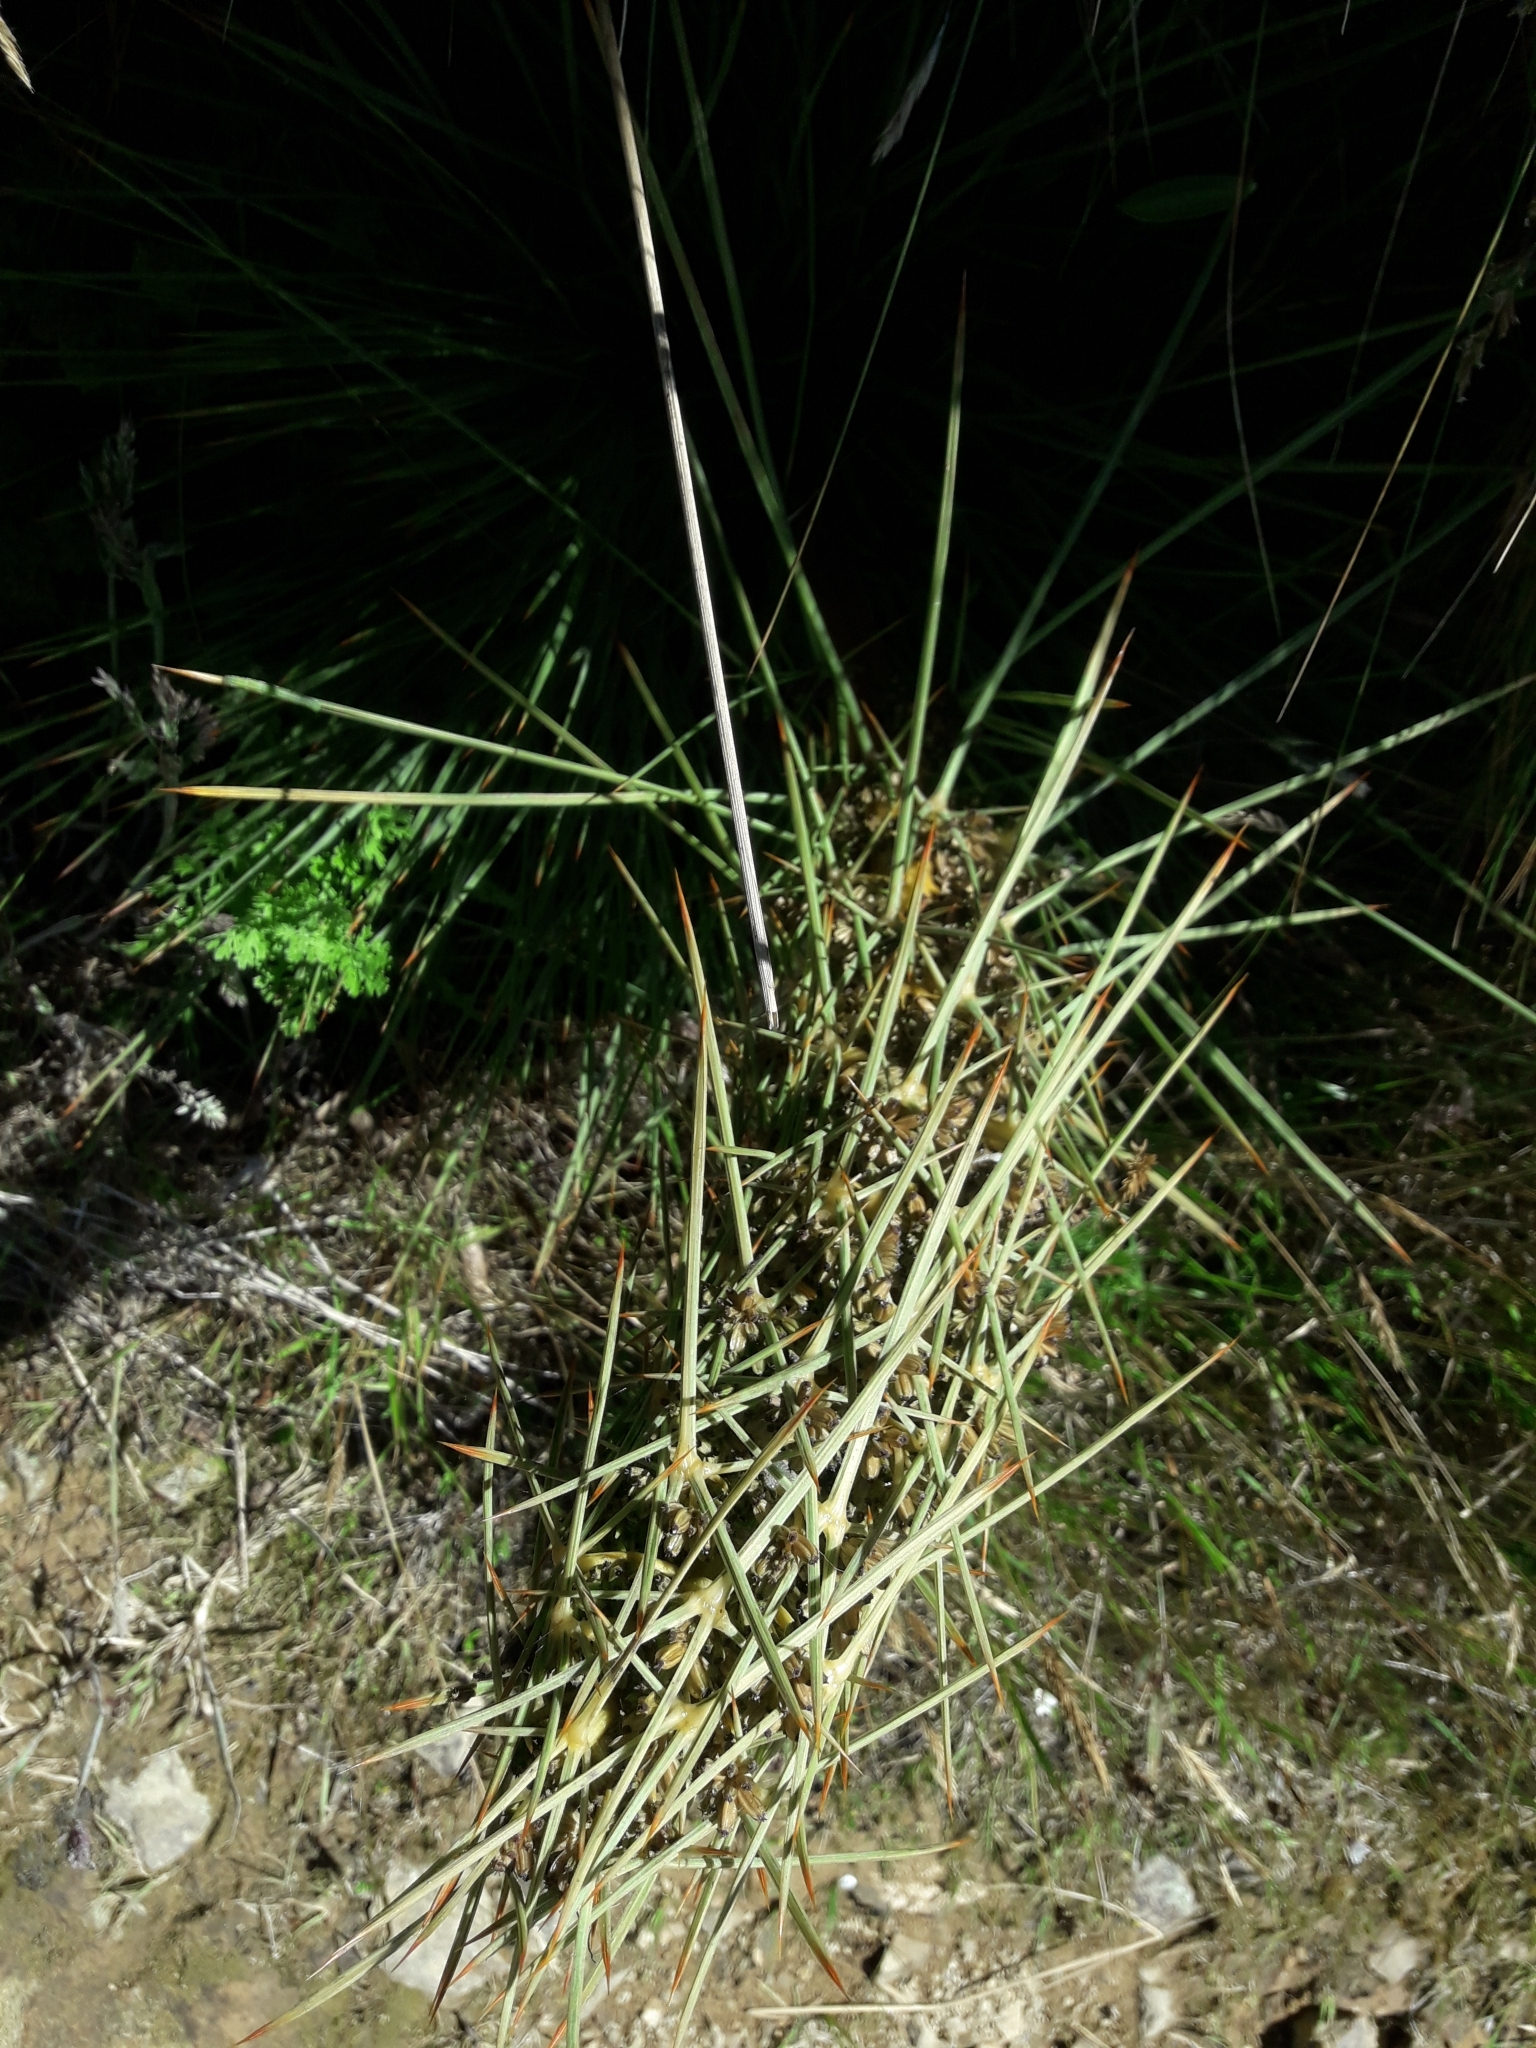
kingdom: Plantae
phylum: Tracheophyta
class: Magnoliopsida
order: Apiales
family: Apiaceae
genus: Aciphylla
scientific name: Aciphylla squarrosa
